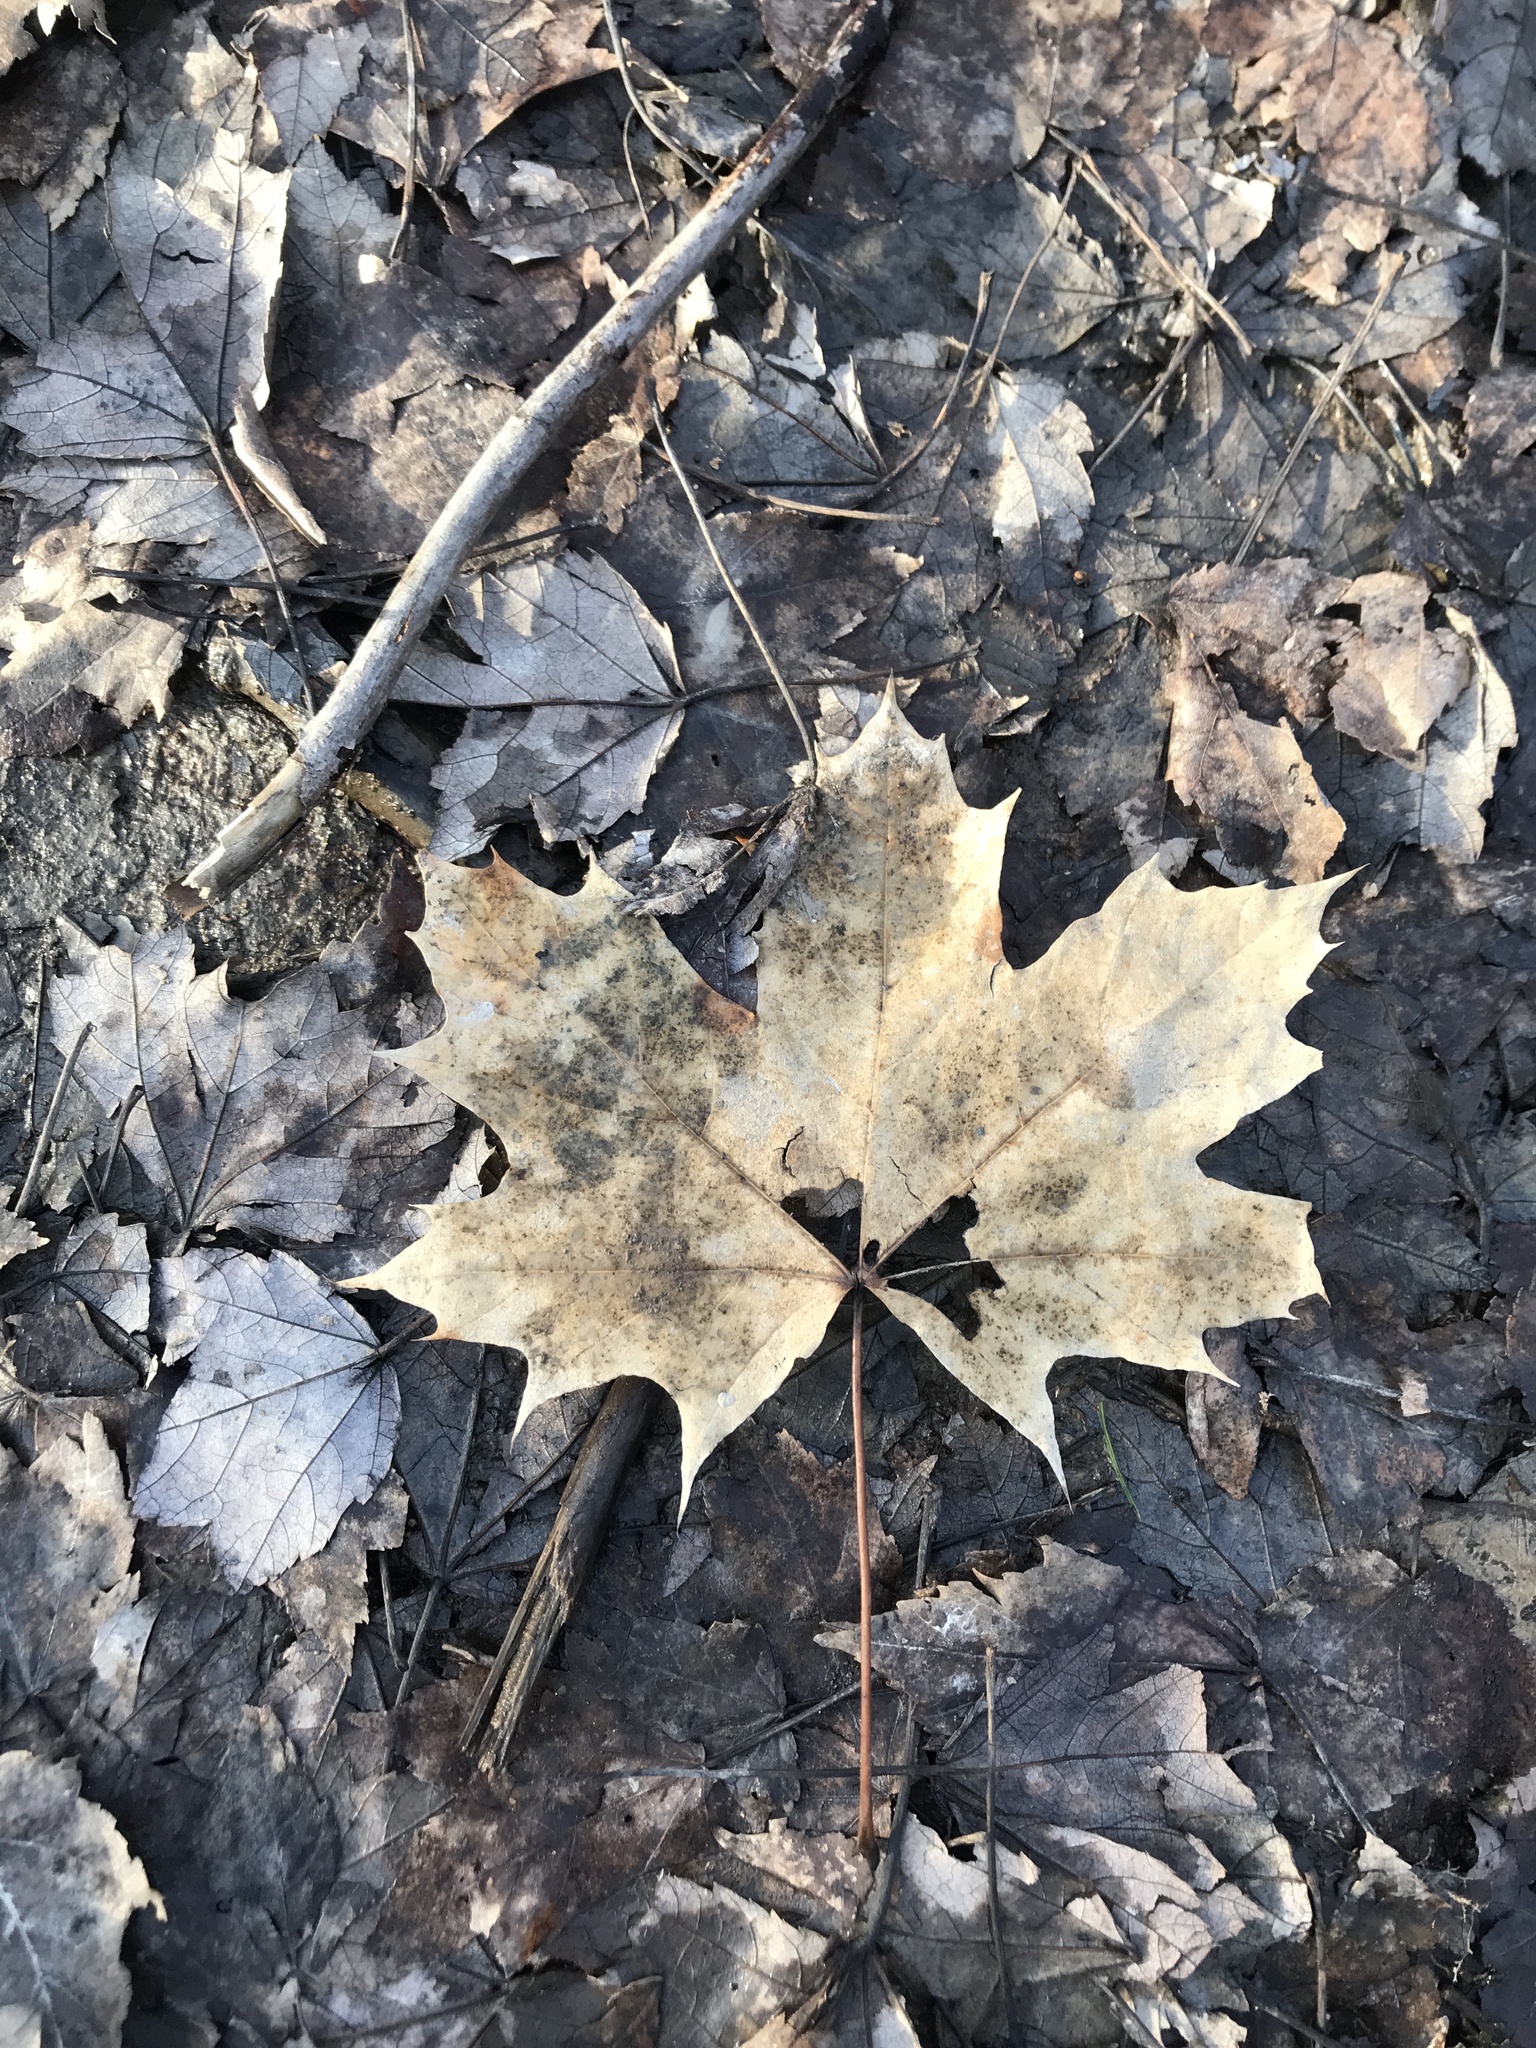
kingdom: Plantae
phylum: Tracheophyta
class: Magnoliopsida
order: Sapindales
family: Sapindaceae
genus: Acer
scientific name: Acer platanoides
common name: Norway maple
